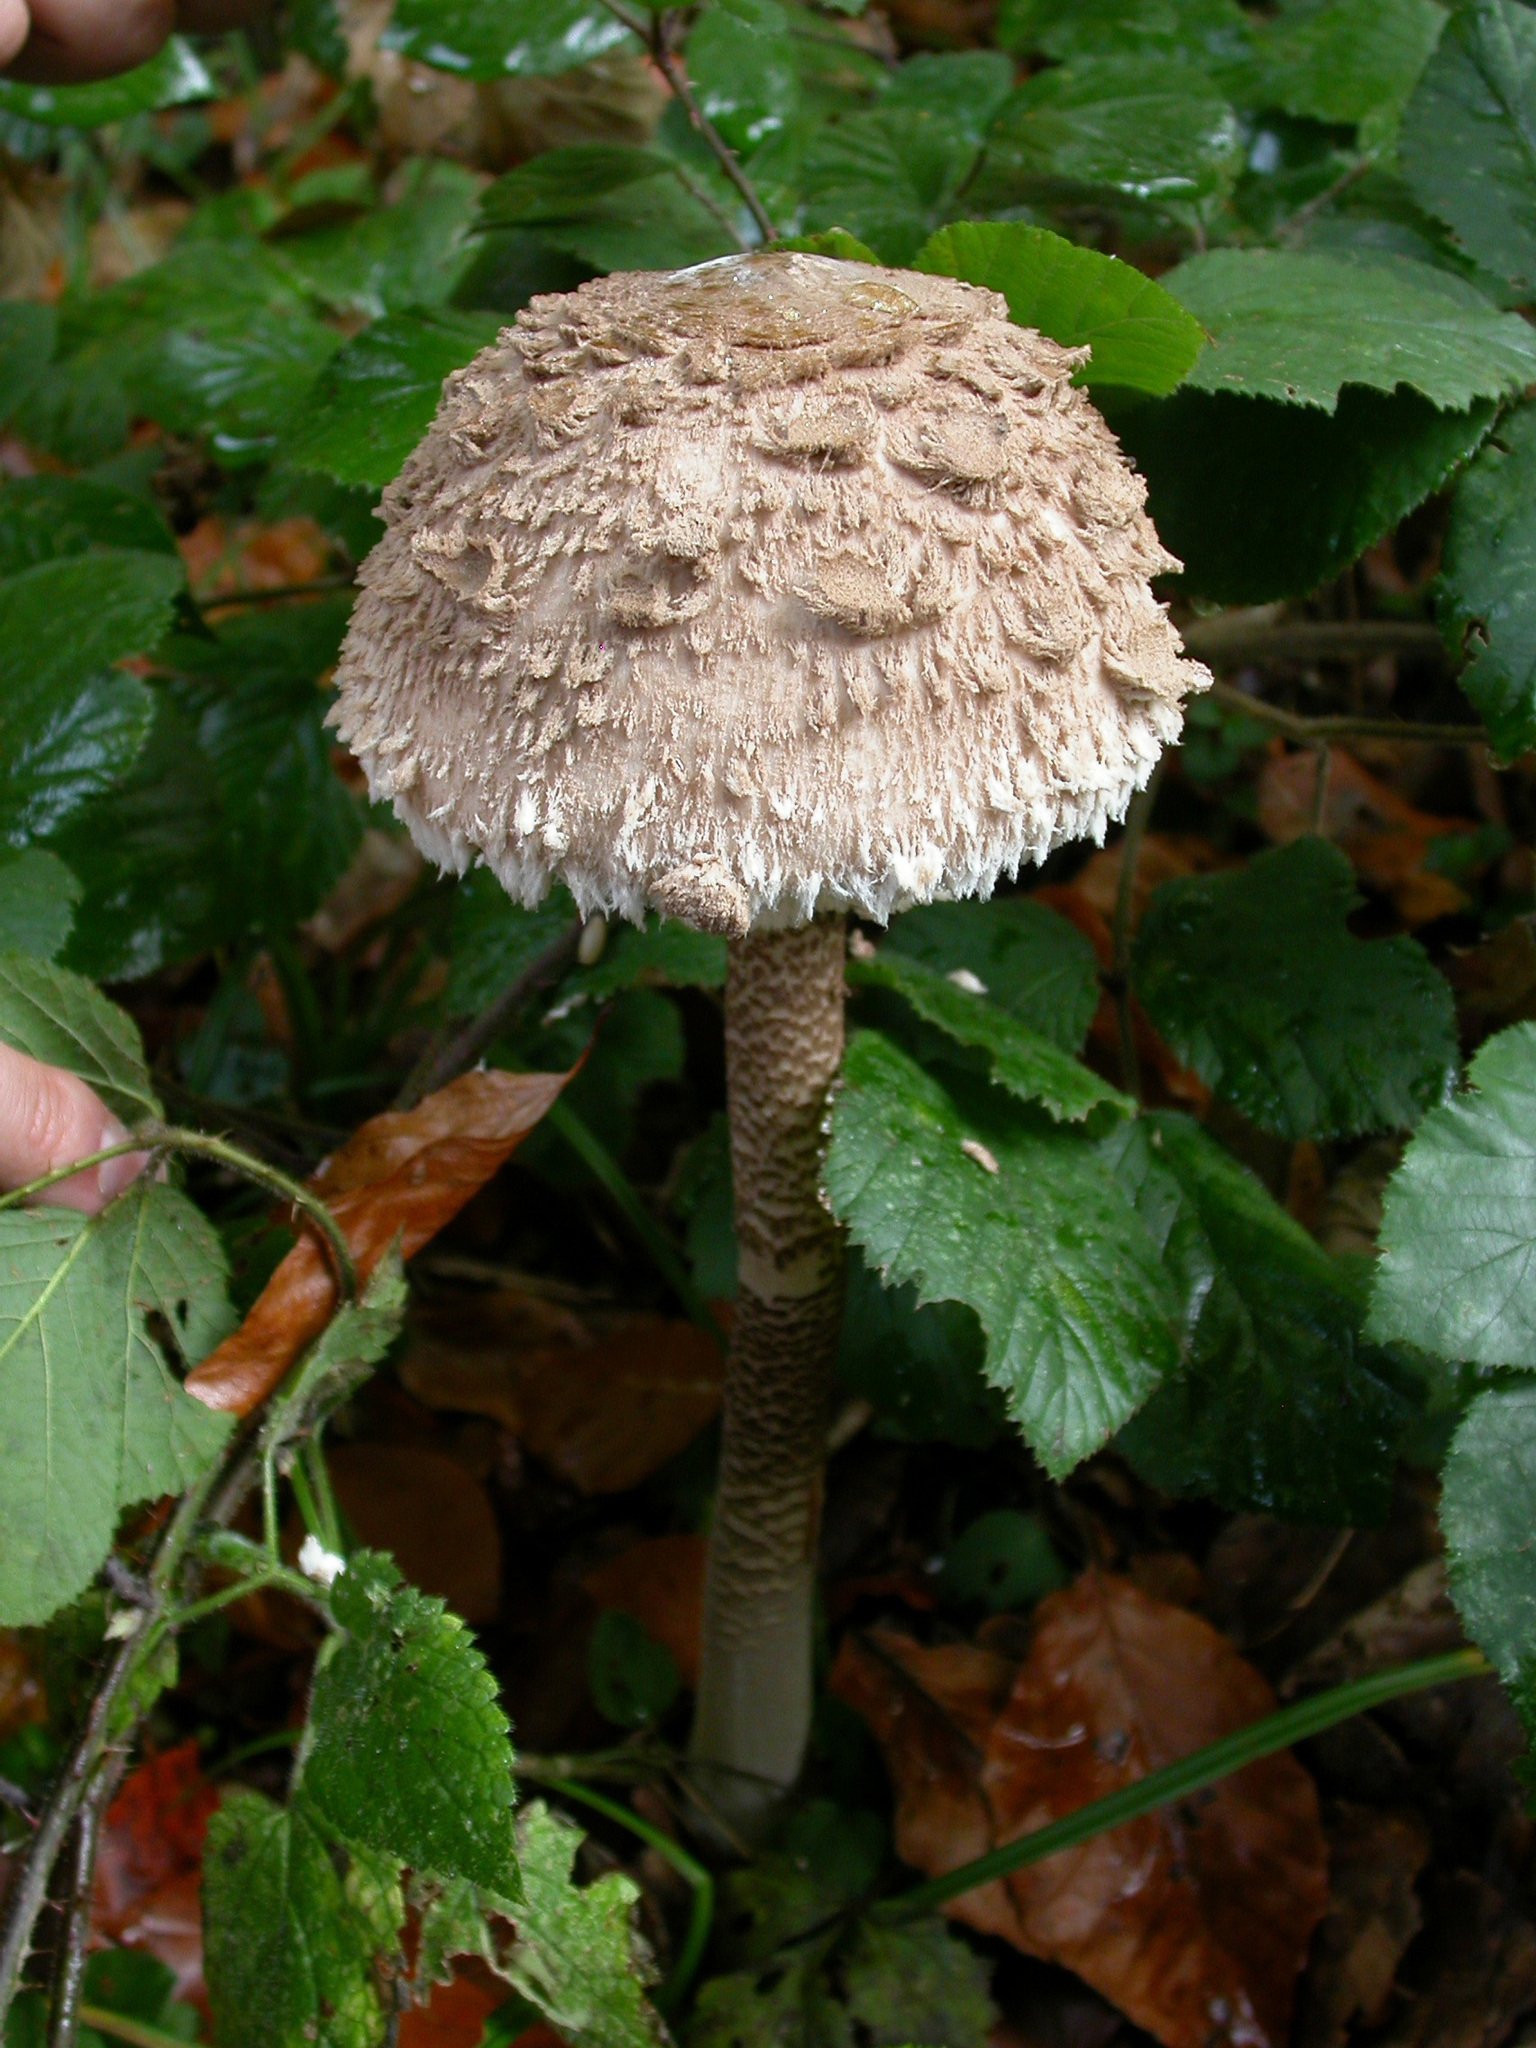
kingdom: Fungi
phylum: Basidiomycota
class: Agaricomycetes
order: Agaricales
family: Agaricaceae
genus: Macrolepiota
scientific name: Macrolepiota procera
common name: Parasol
